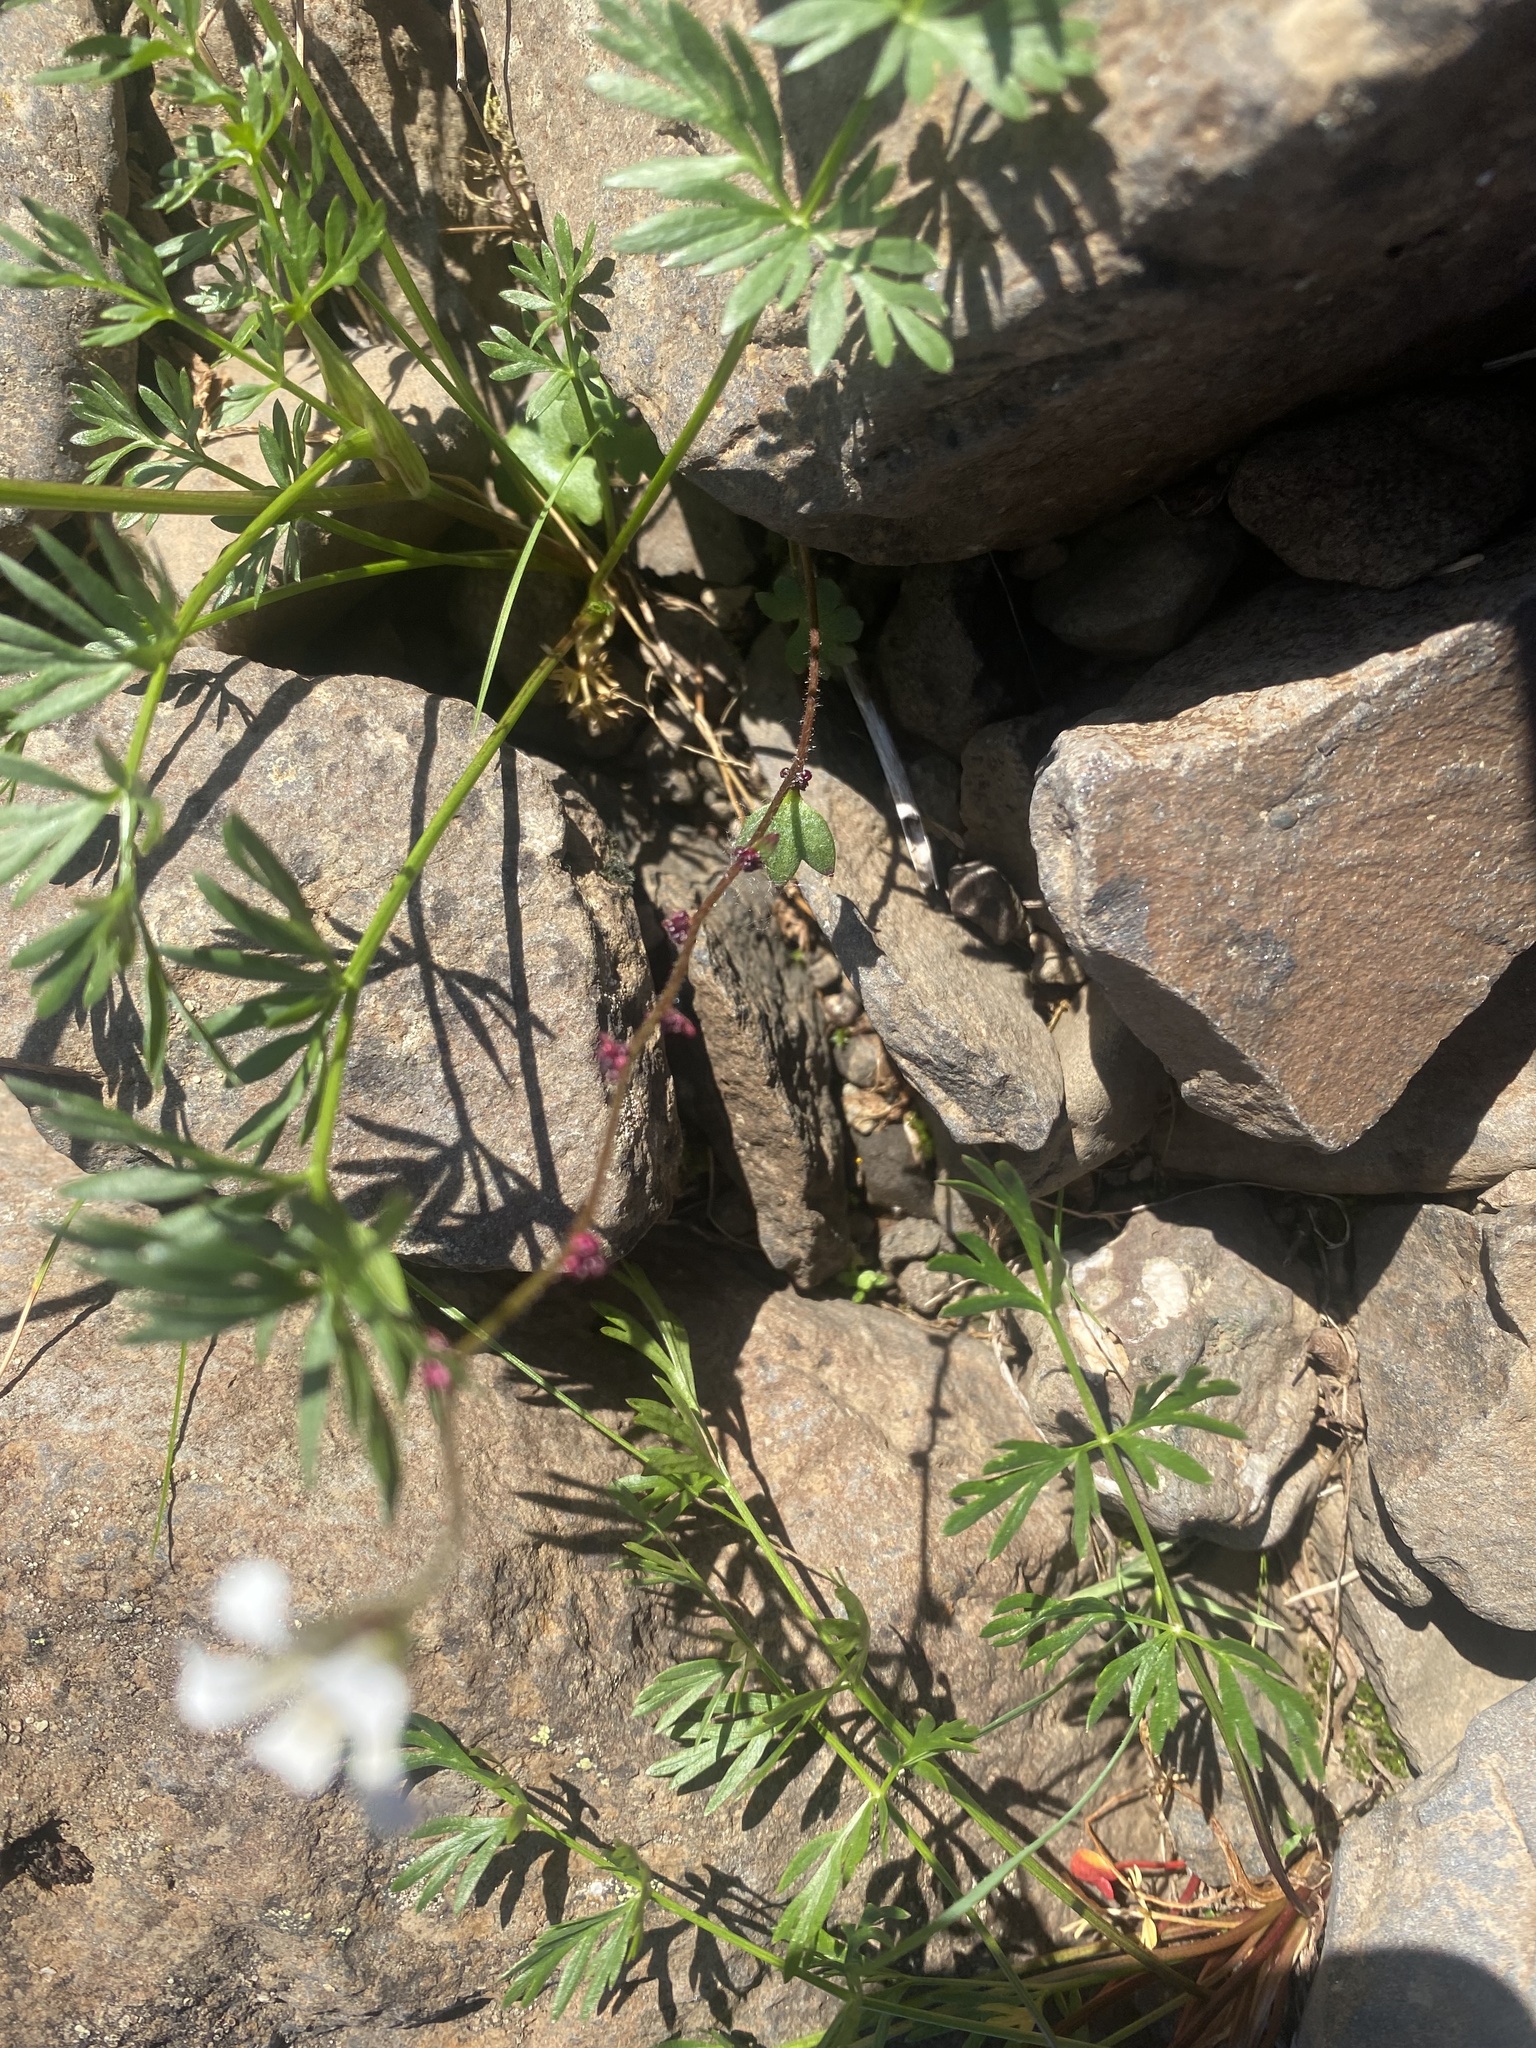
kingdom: Plantae
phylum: Tracheophyta
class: Magnoliopsida
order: Saxifragales
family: Saxifragaceae
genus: Saxifraga
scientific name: Saxifraga cernua
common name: Drooping saxifrage
